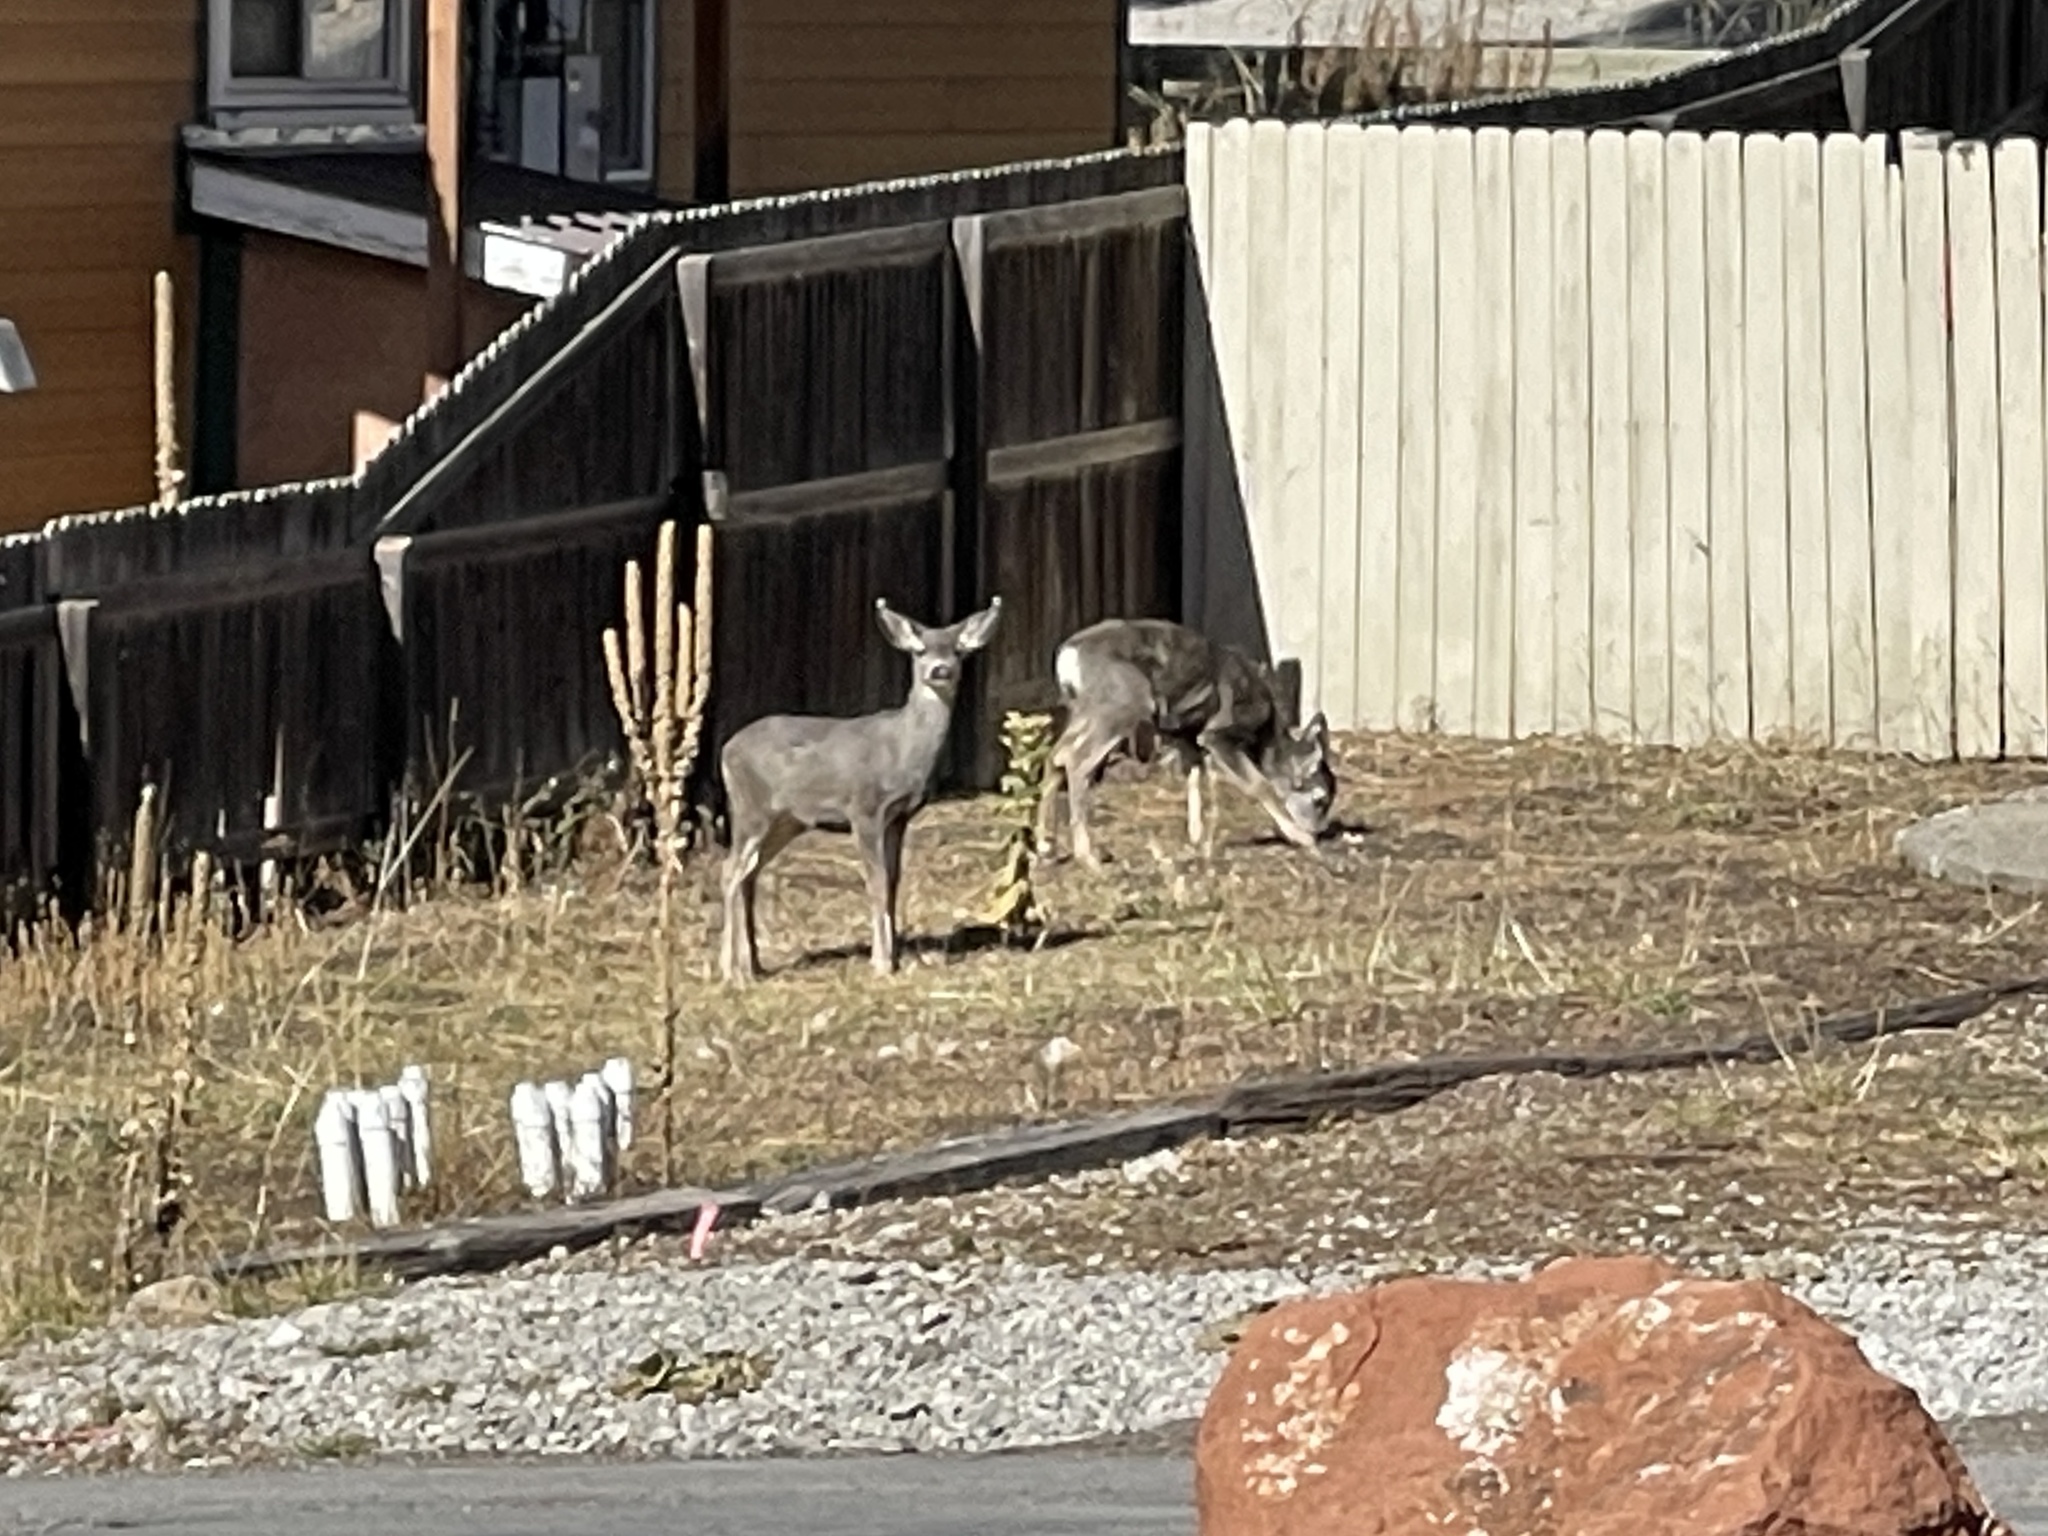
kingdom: Animalia
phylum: Chordata
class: Mammalia
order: Artiodactyla
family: Cervidae
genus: Odocoileus
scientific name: Odocoileus hemionus
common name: Mule deer
